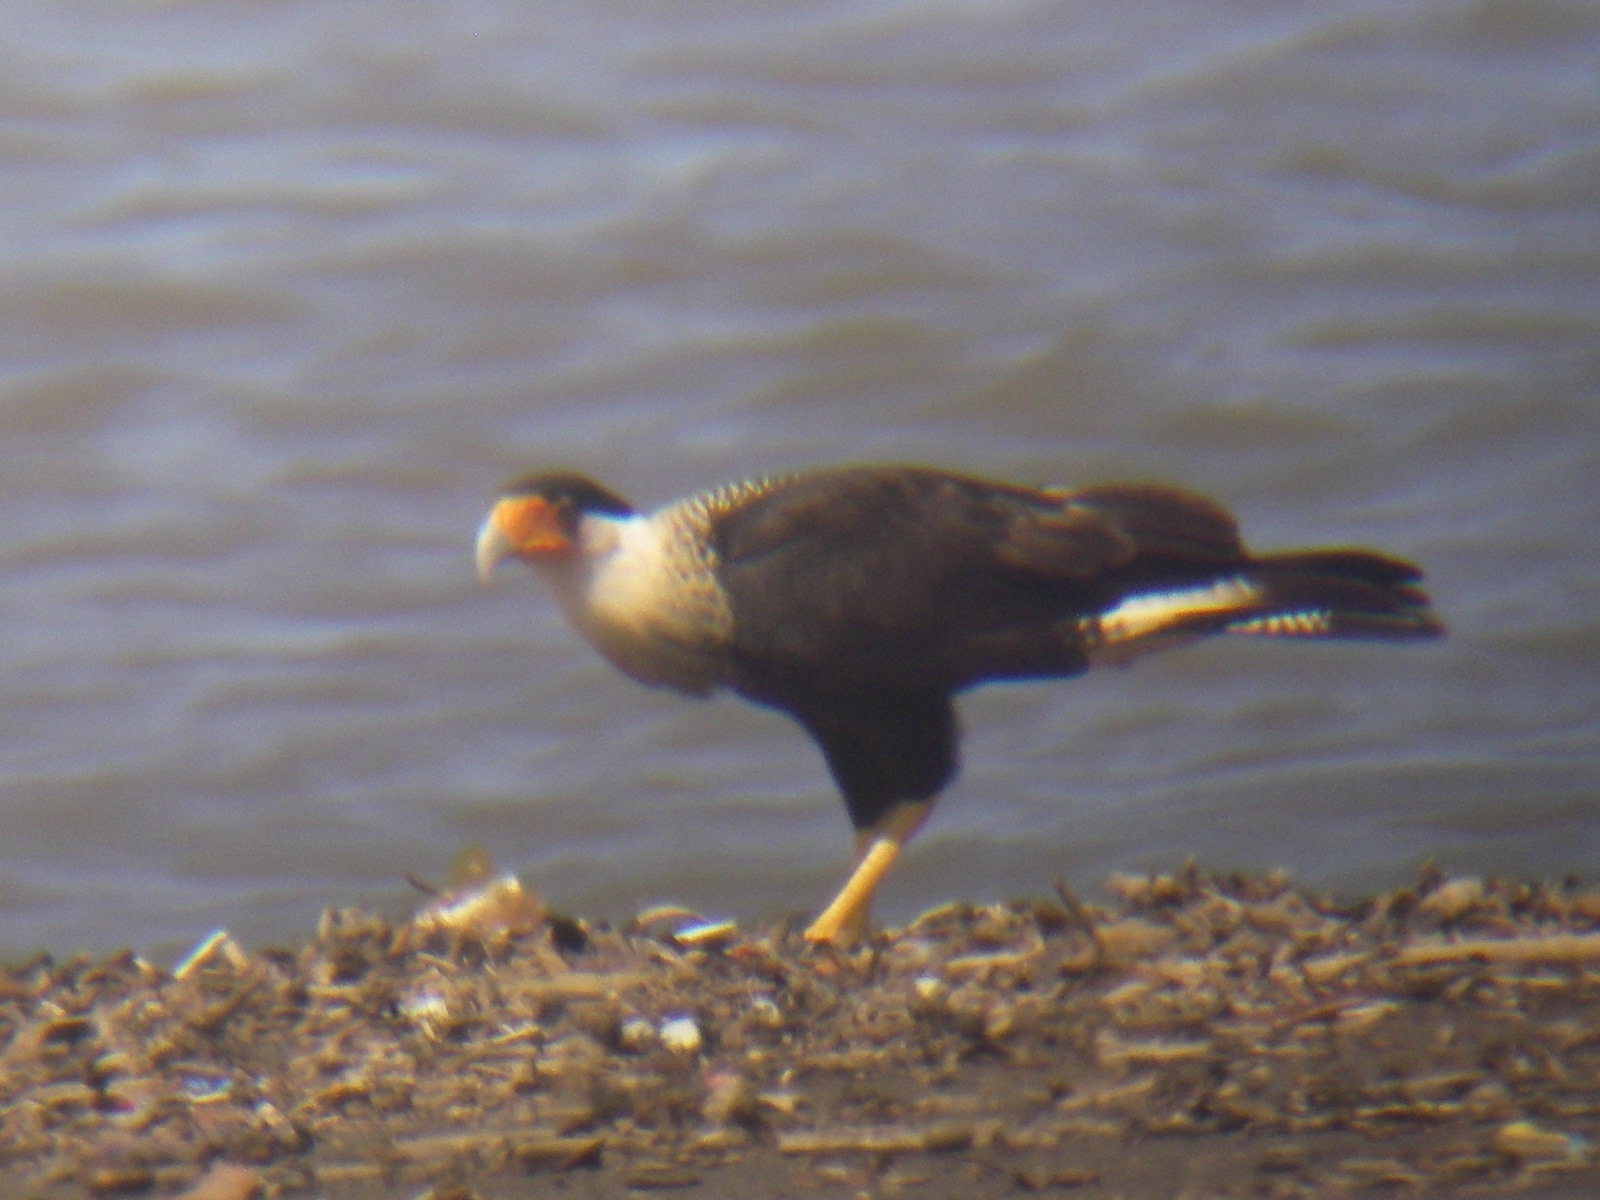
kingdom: Animalia
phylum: Chordata
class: Aves
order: Falconiformes
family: Falconidae
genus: Caracara
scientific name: Caracara plancus
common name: Southern caracara
